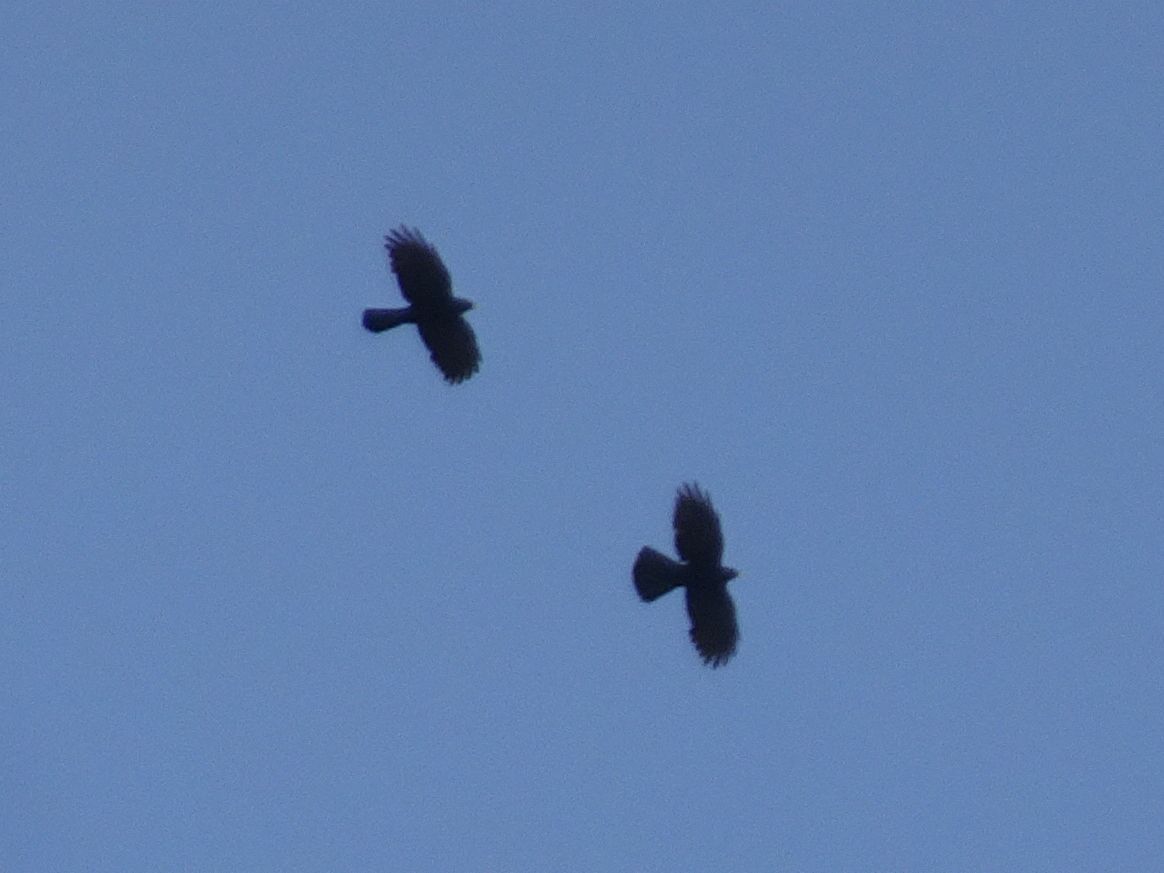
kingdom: Animalia
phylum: Chordata
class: Aves
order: Passeriformes
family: Corvidae
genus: Pyrrhocorax
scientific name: Pyrrhocorax graculus
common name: Alpine chough
